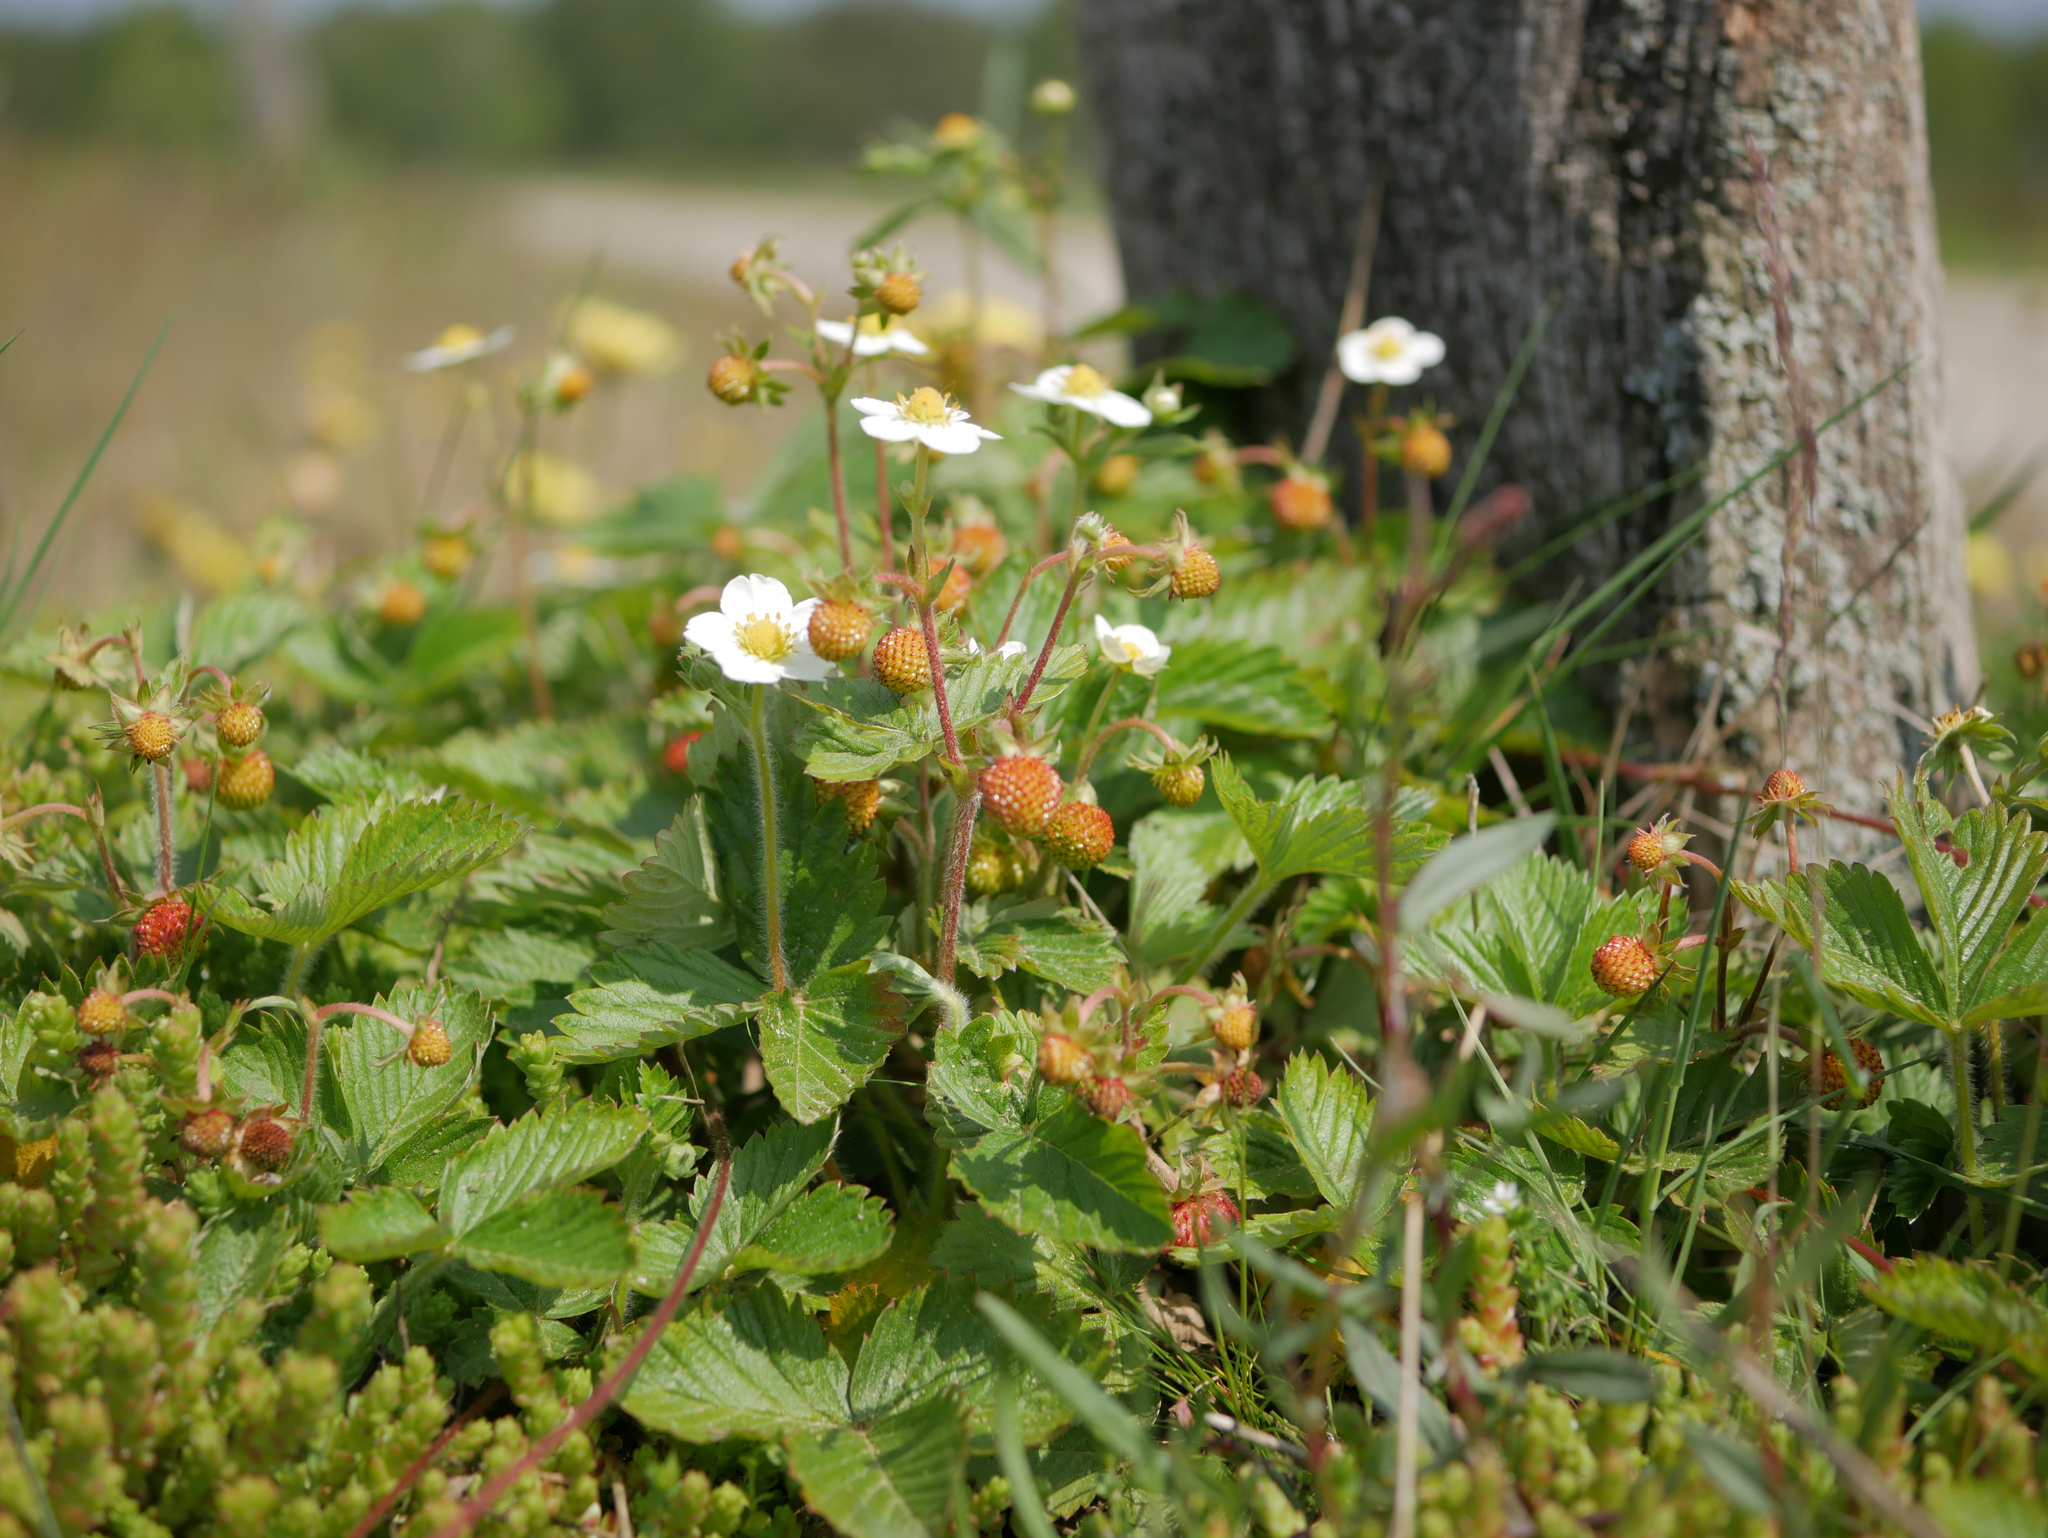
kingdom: Plantae
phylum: Tracheophyta
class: Magnoliopsida
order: Rosales
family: Rosaceae
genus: Fragaria
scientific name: Fragaria vesca
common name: Wild strawberry
